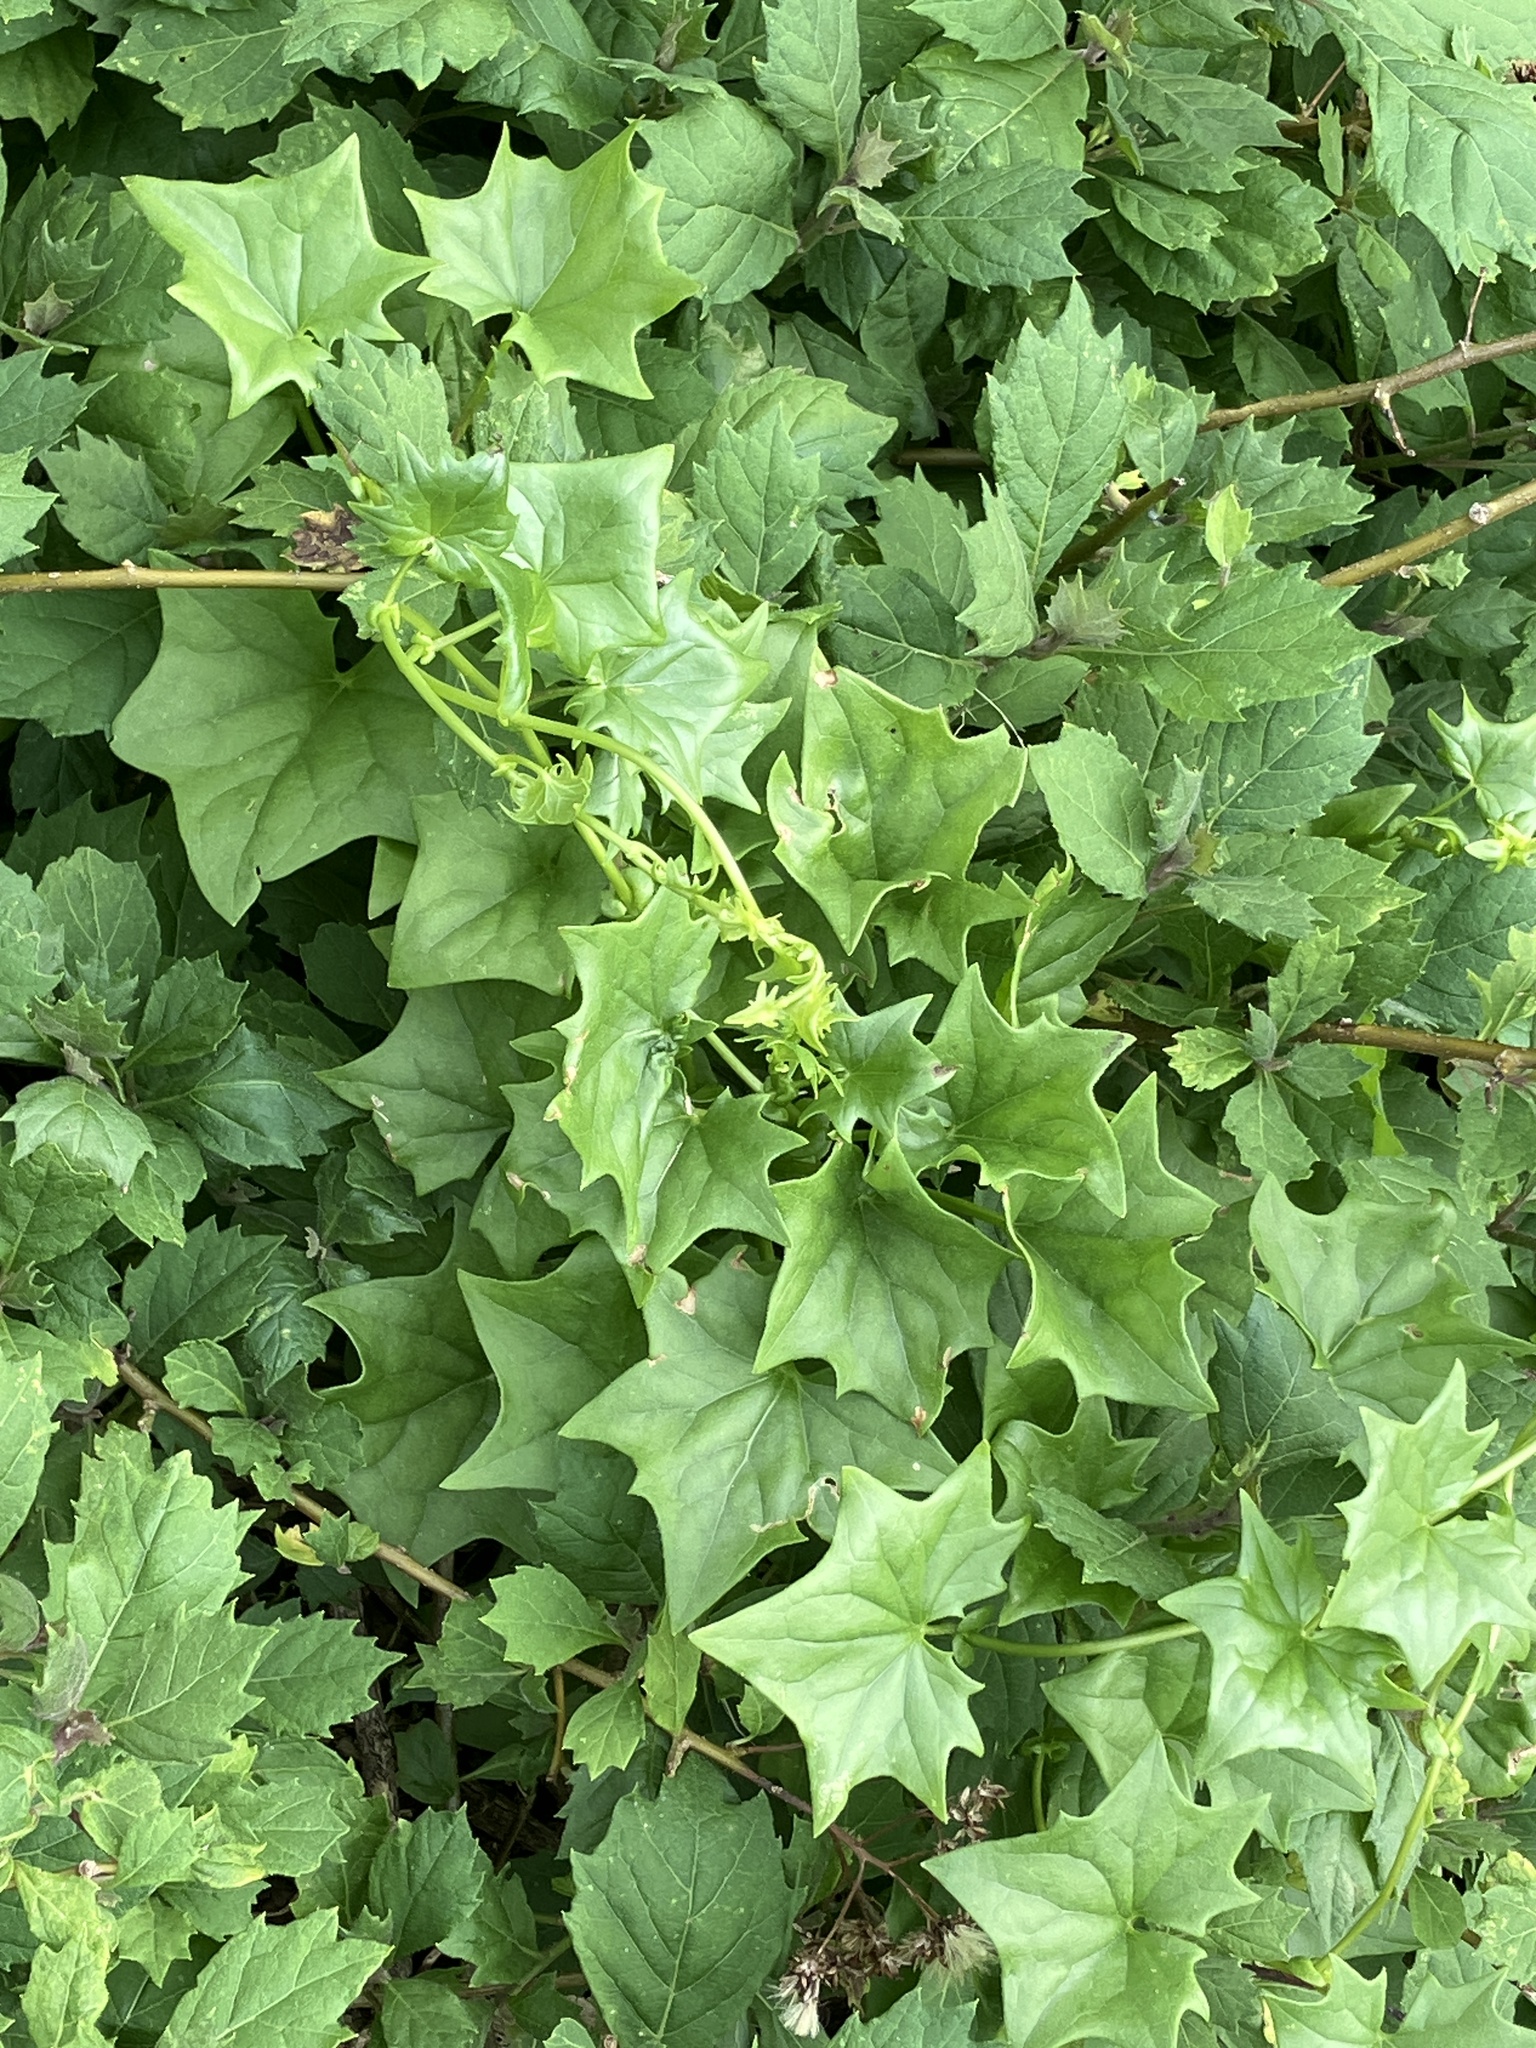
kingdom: Plantae
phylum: Tracheophyta
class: Magnoliopsida
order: Asterales
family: Asteraceae
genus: Delairea
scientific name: Delairea odorata
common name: Cape-ivy
